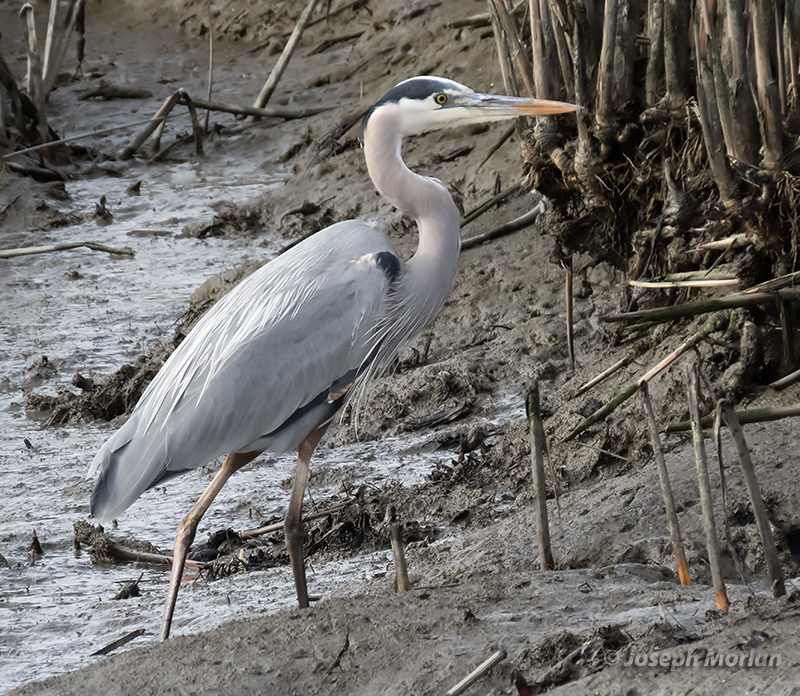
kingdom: Animalia
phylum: Chordata
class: Aves
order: Pelecaniformes
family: Ardeidae
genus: Ardea
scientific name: Ardea herodias
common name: Great blue heron
